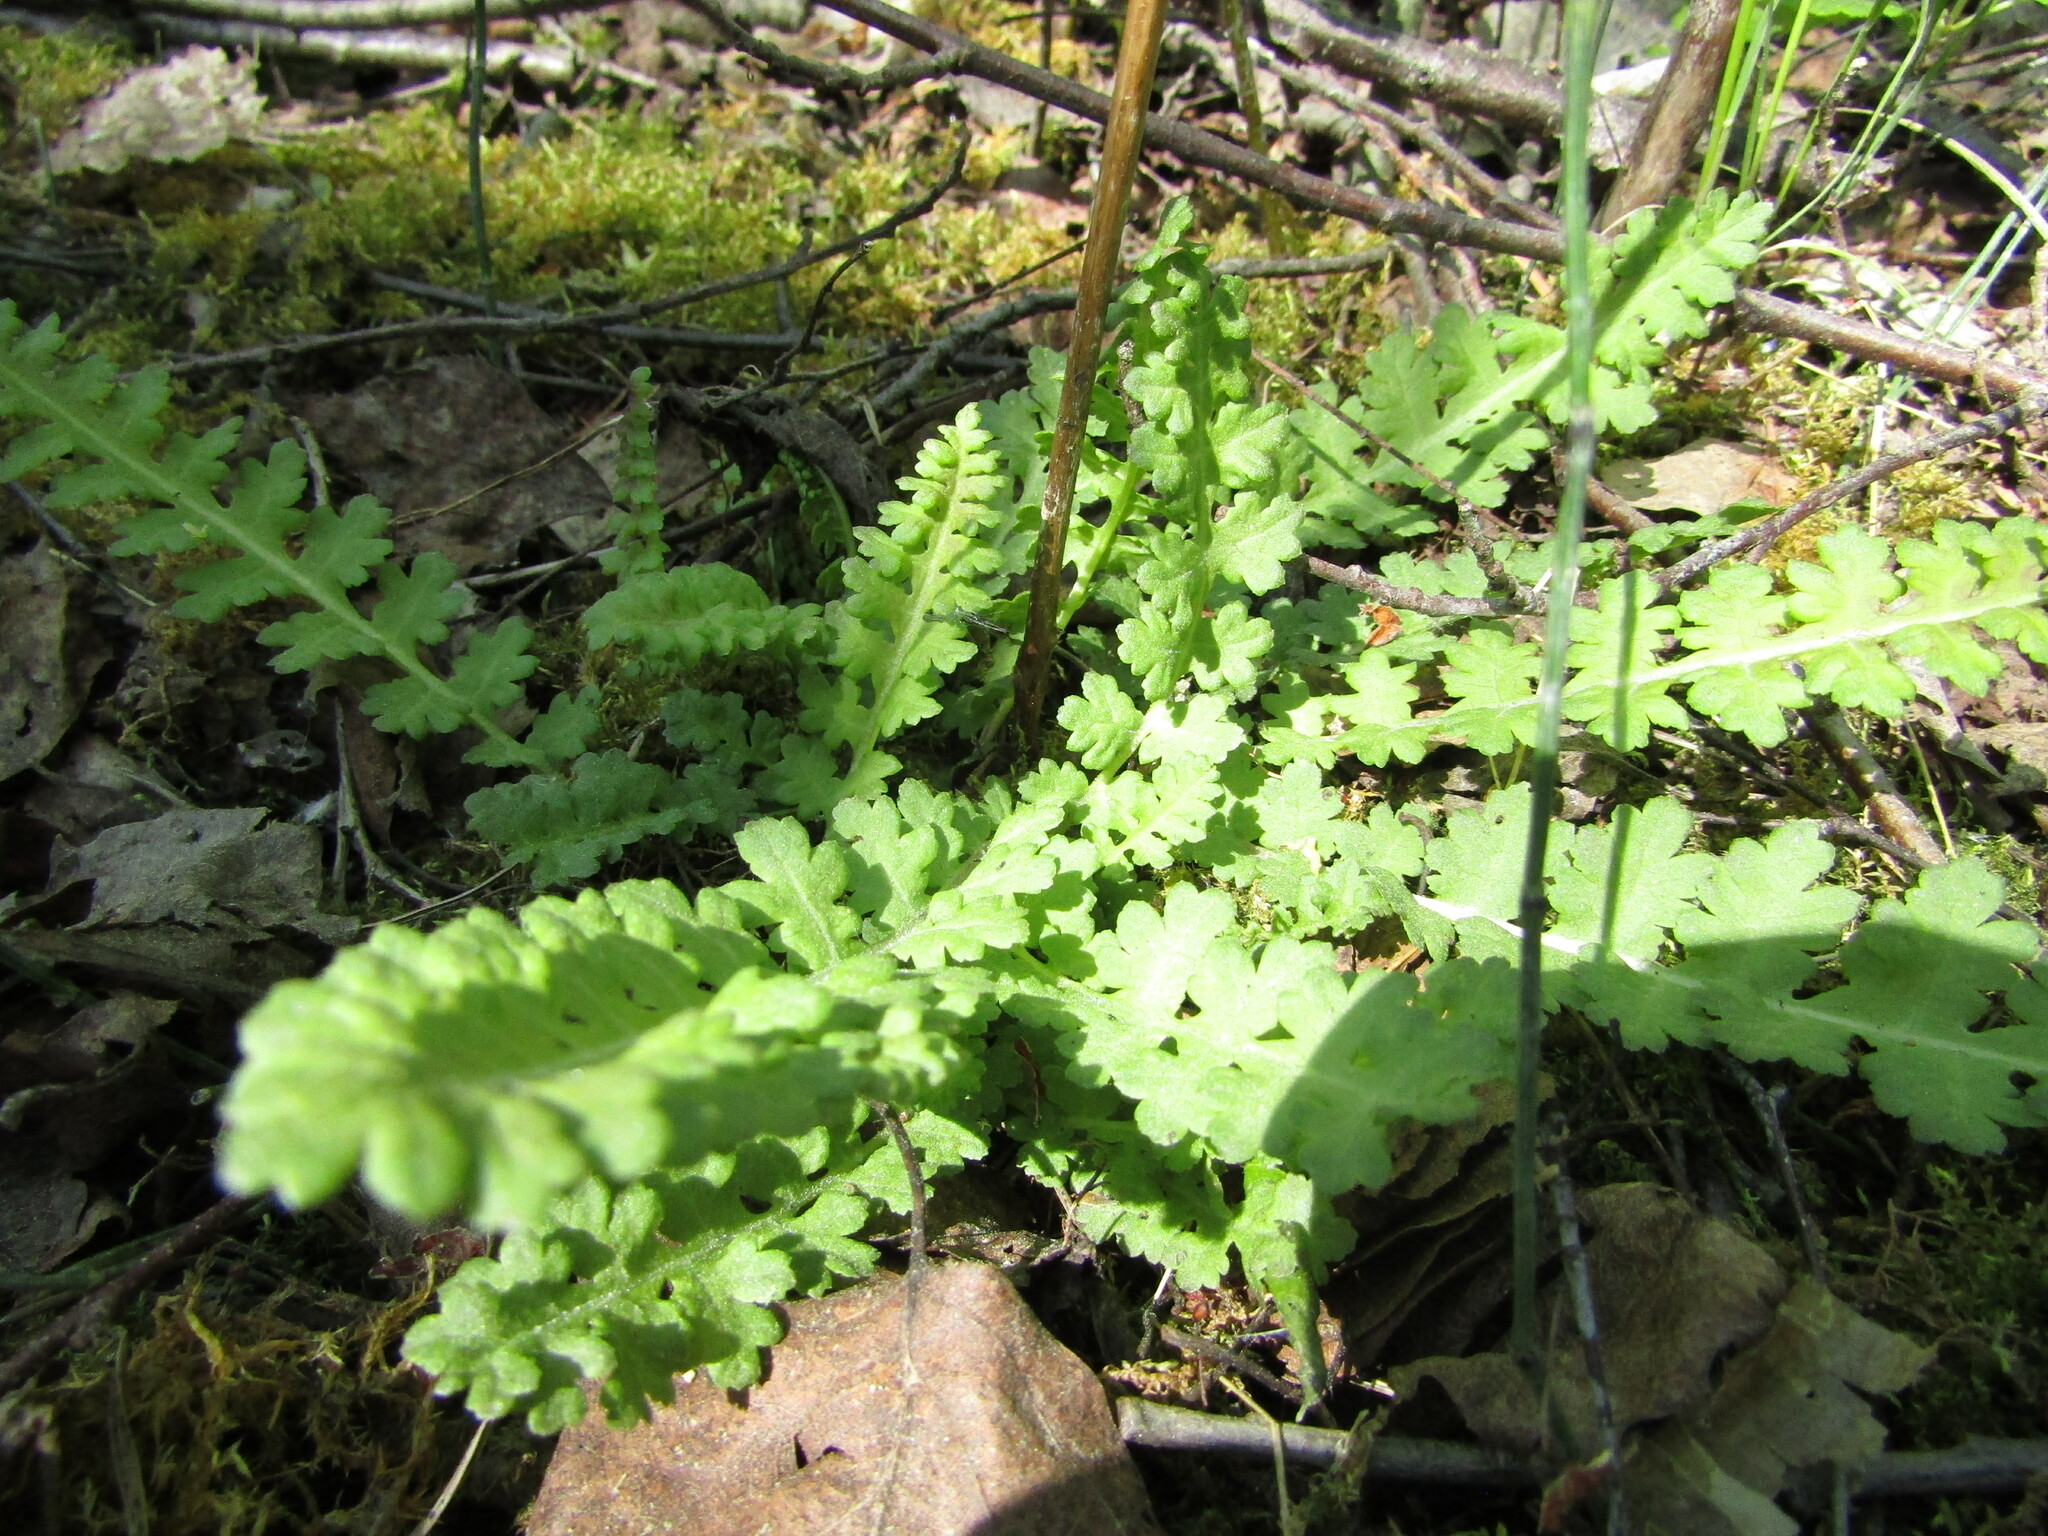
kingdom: Plantae
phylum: Tracheophyta
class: Magnoliopsida
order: Lamiales
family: Orobanchaceae
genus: Pedicularis
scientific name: Pedicularis sceptrum-carolinum
